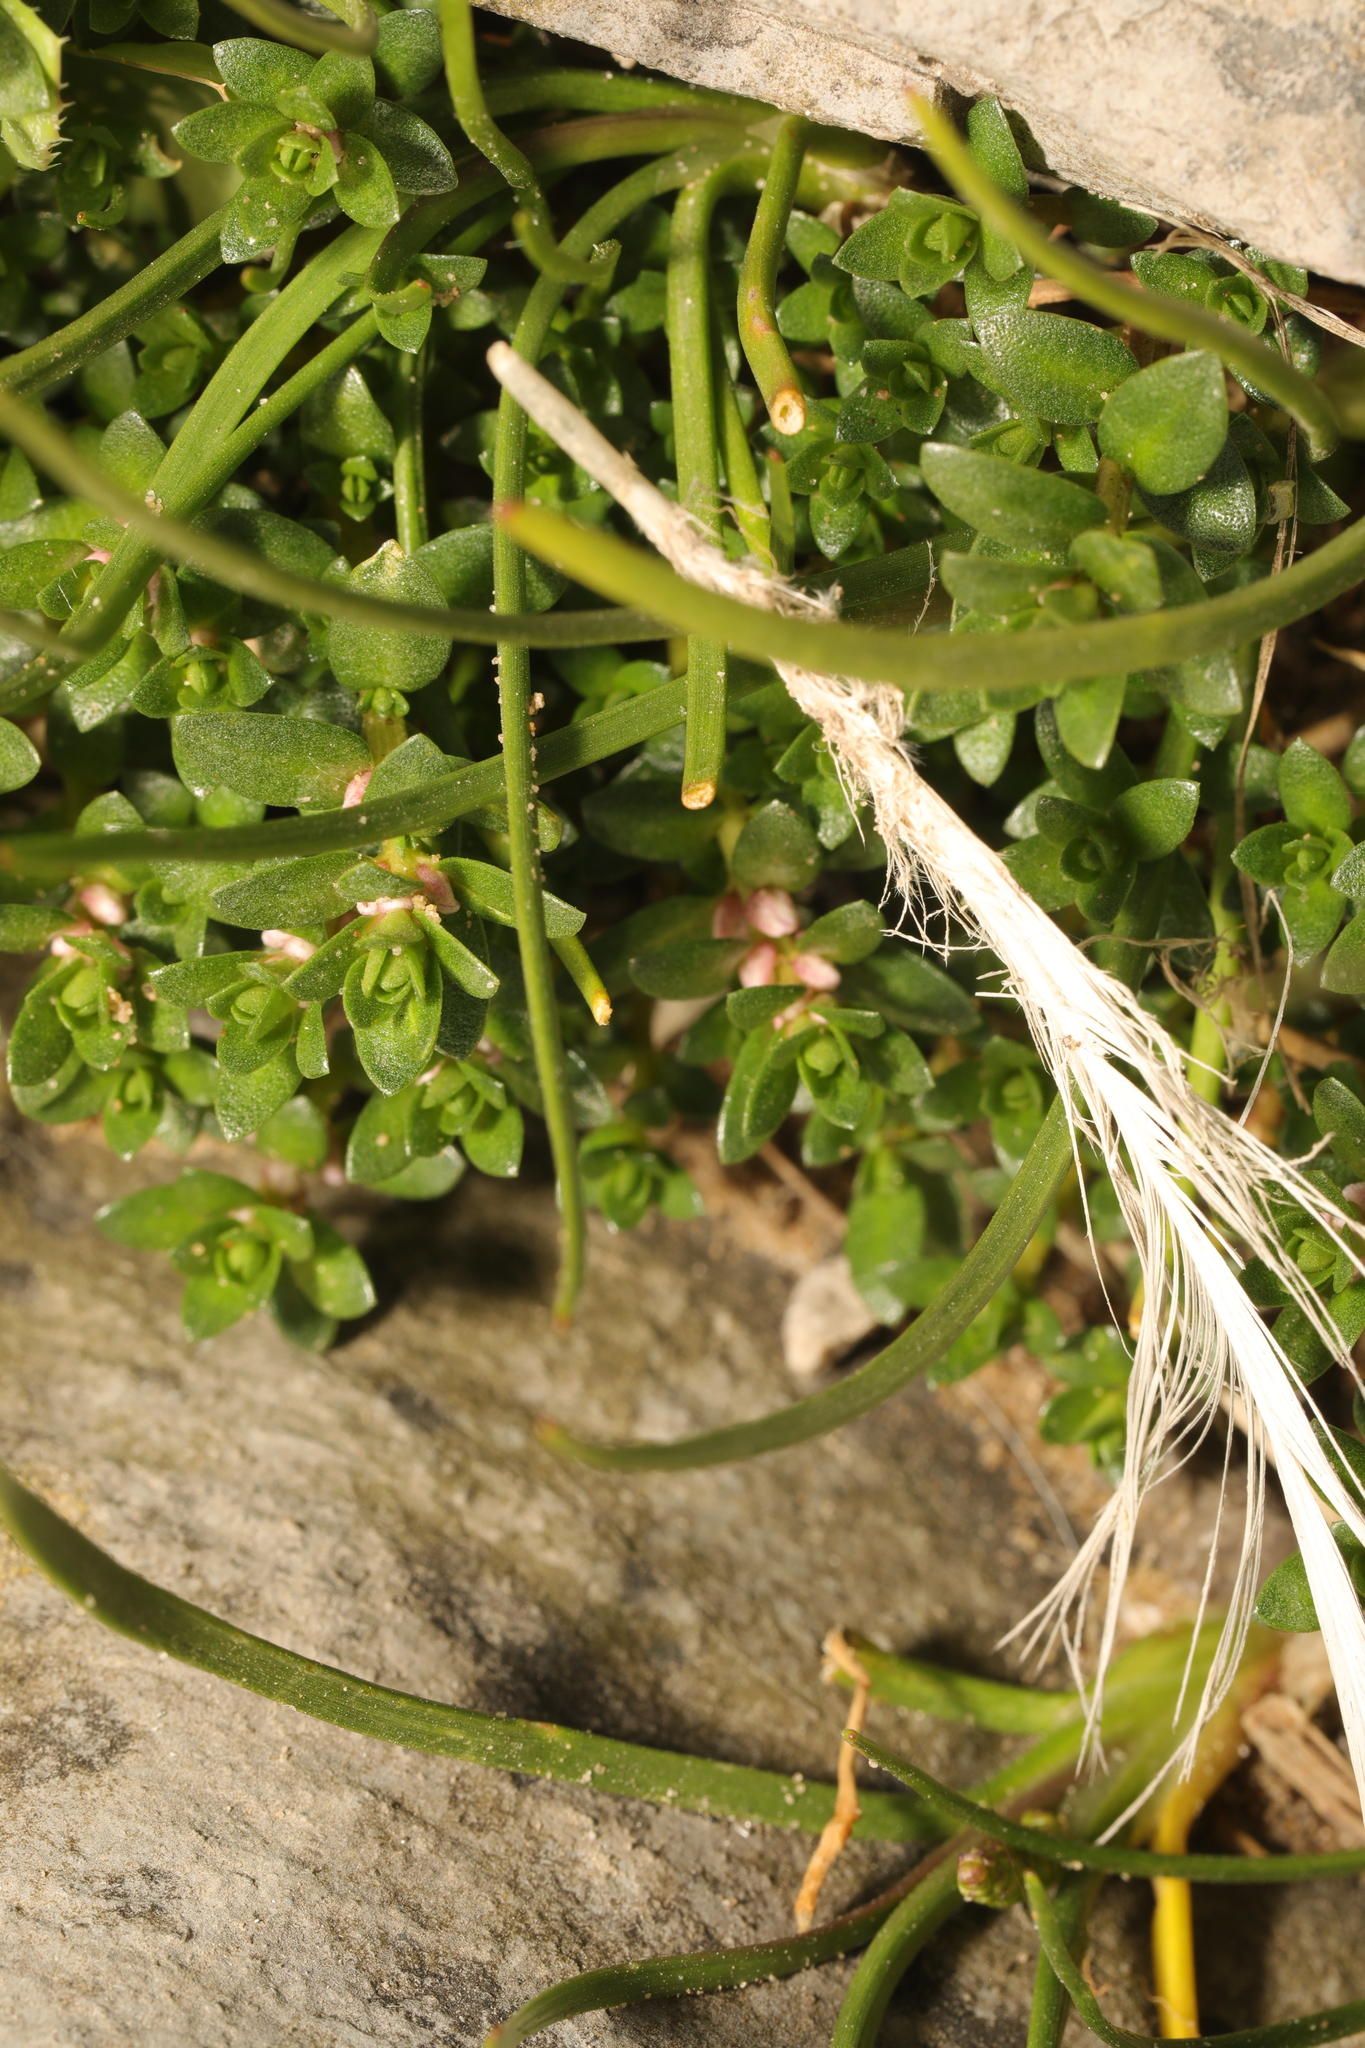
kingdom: Plantae
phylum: Tracheophyta
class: Magnoliopsida
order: Ericales
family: Primulaceae
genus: Lysimachia
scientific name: Lysimachia maritima
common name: Sea milkwort
